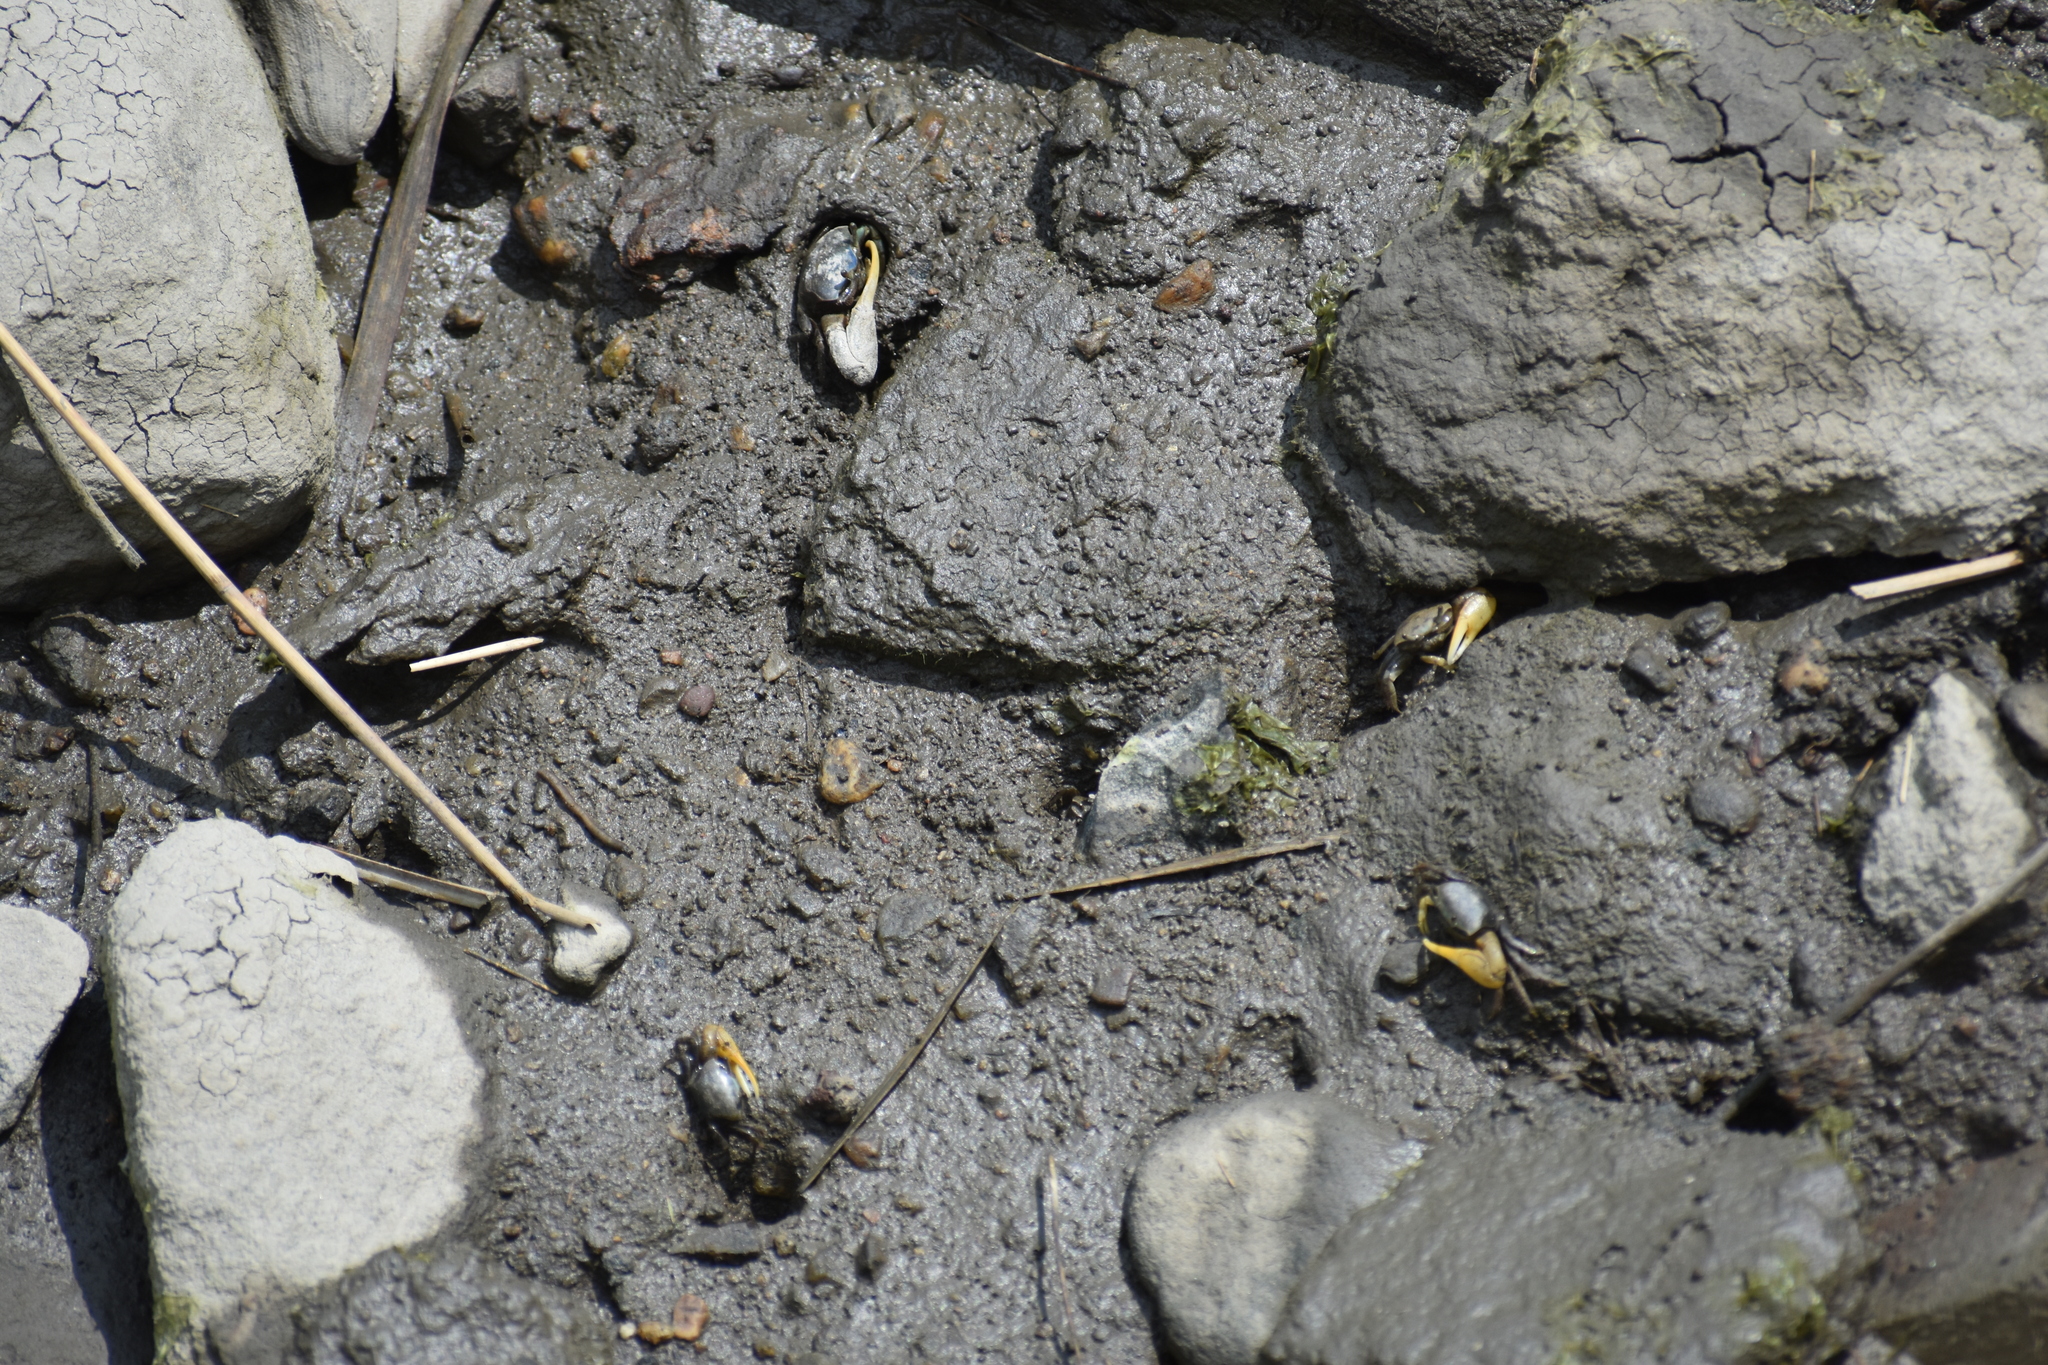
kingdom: Animalia
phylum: Arthropoda
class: Malacostraca
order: Decapoda
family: Ocypodidae
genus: Minuca
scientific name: Minuca pugnax
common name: Mud fiddler crab
